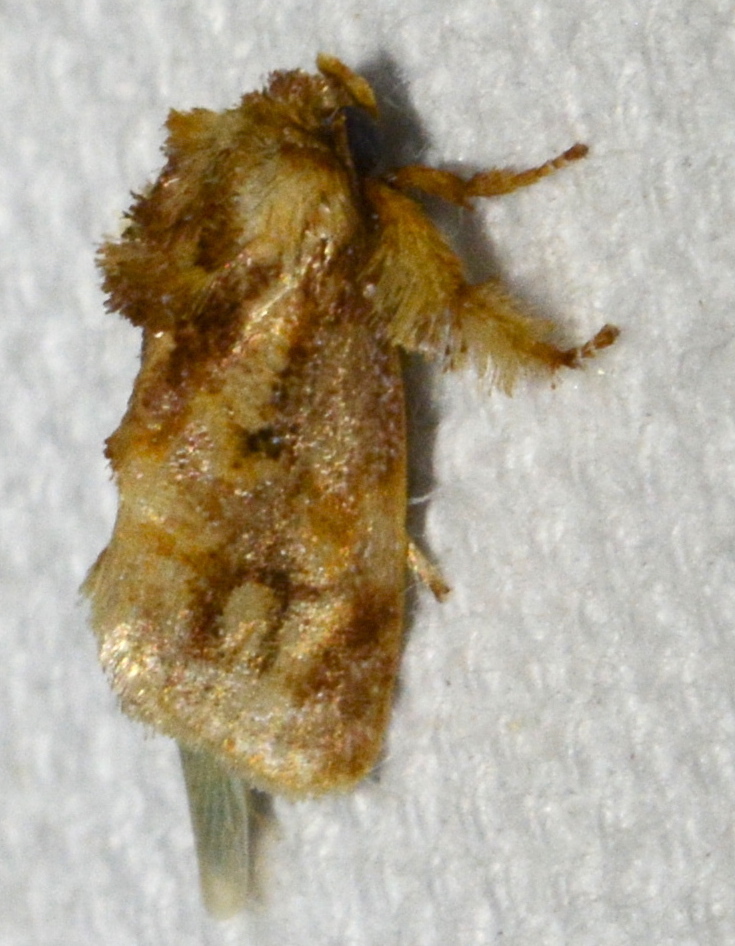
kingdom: Animalia
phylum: Arthropoda
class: Insecta
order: Lepidoptera
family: Limacodidae
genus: Isochaetes
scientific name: Isochaetes beutenmuelleri
